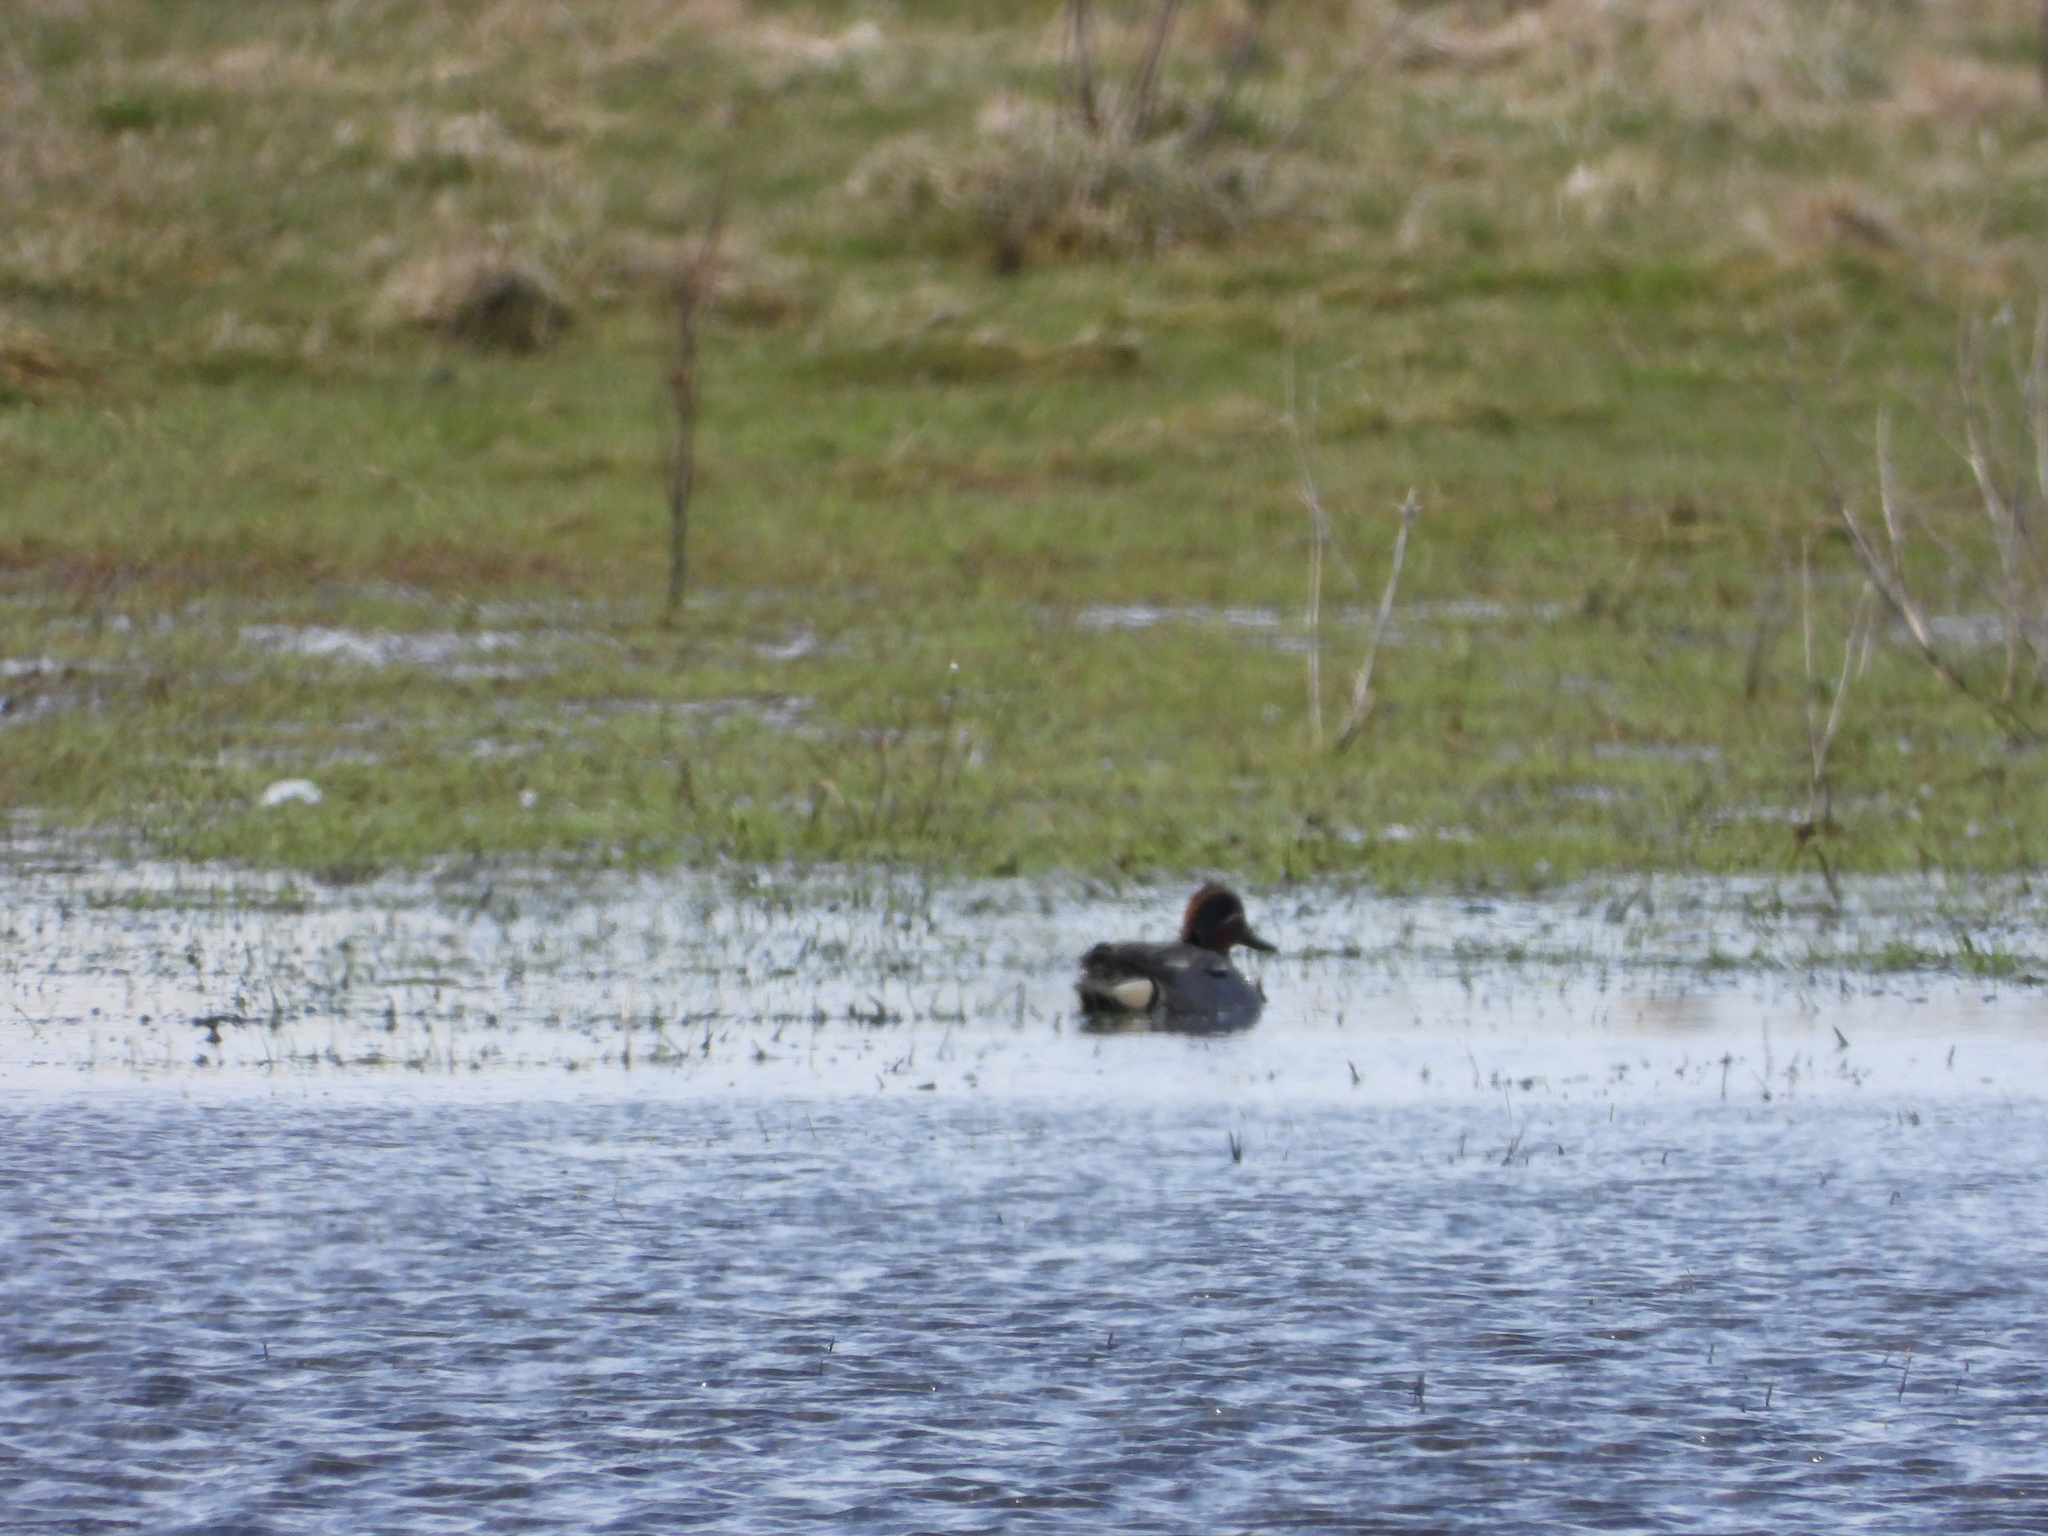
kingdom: Animalia
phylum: Chordata
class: Aves
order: Anseriformes
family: Anatidae
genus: Anas
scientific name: Anas crecca
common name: Eurasian teal
